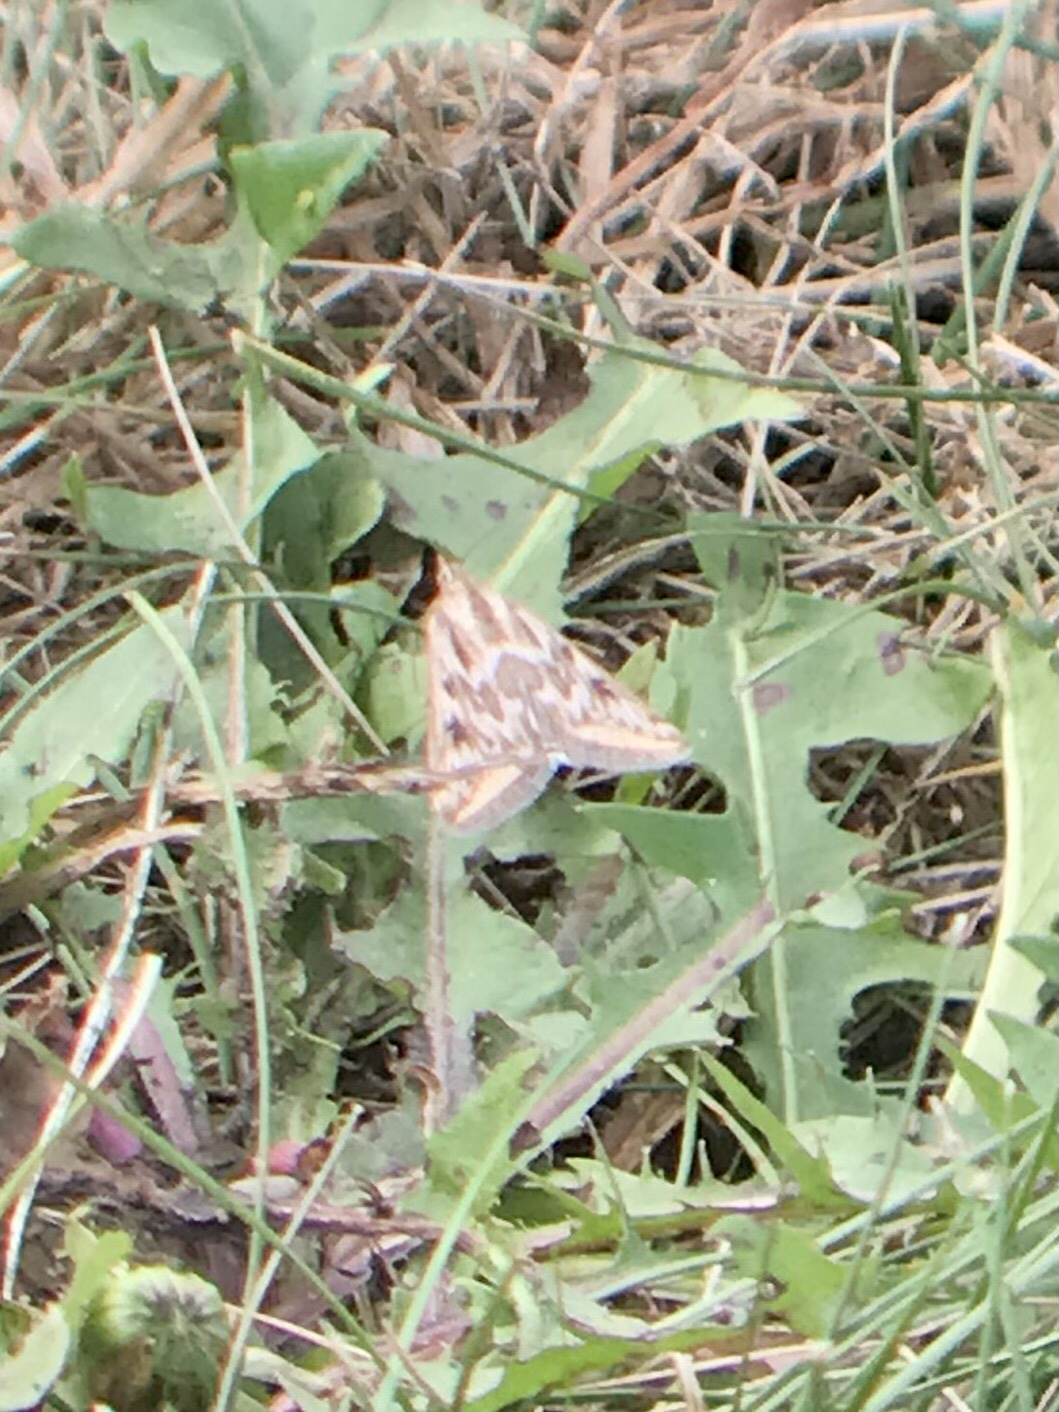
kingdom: Animalia
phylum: Arthropoda
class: Insecta
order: Lepidoptera
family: Crambidae
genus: Loxostege
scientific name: Loxostege cereralis
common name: Alfalfa webworm moth
